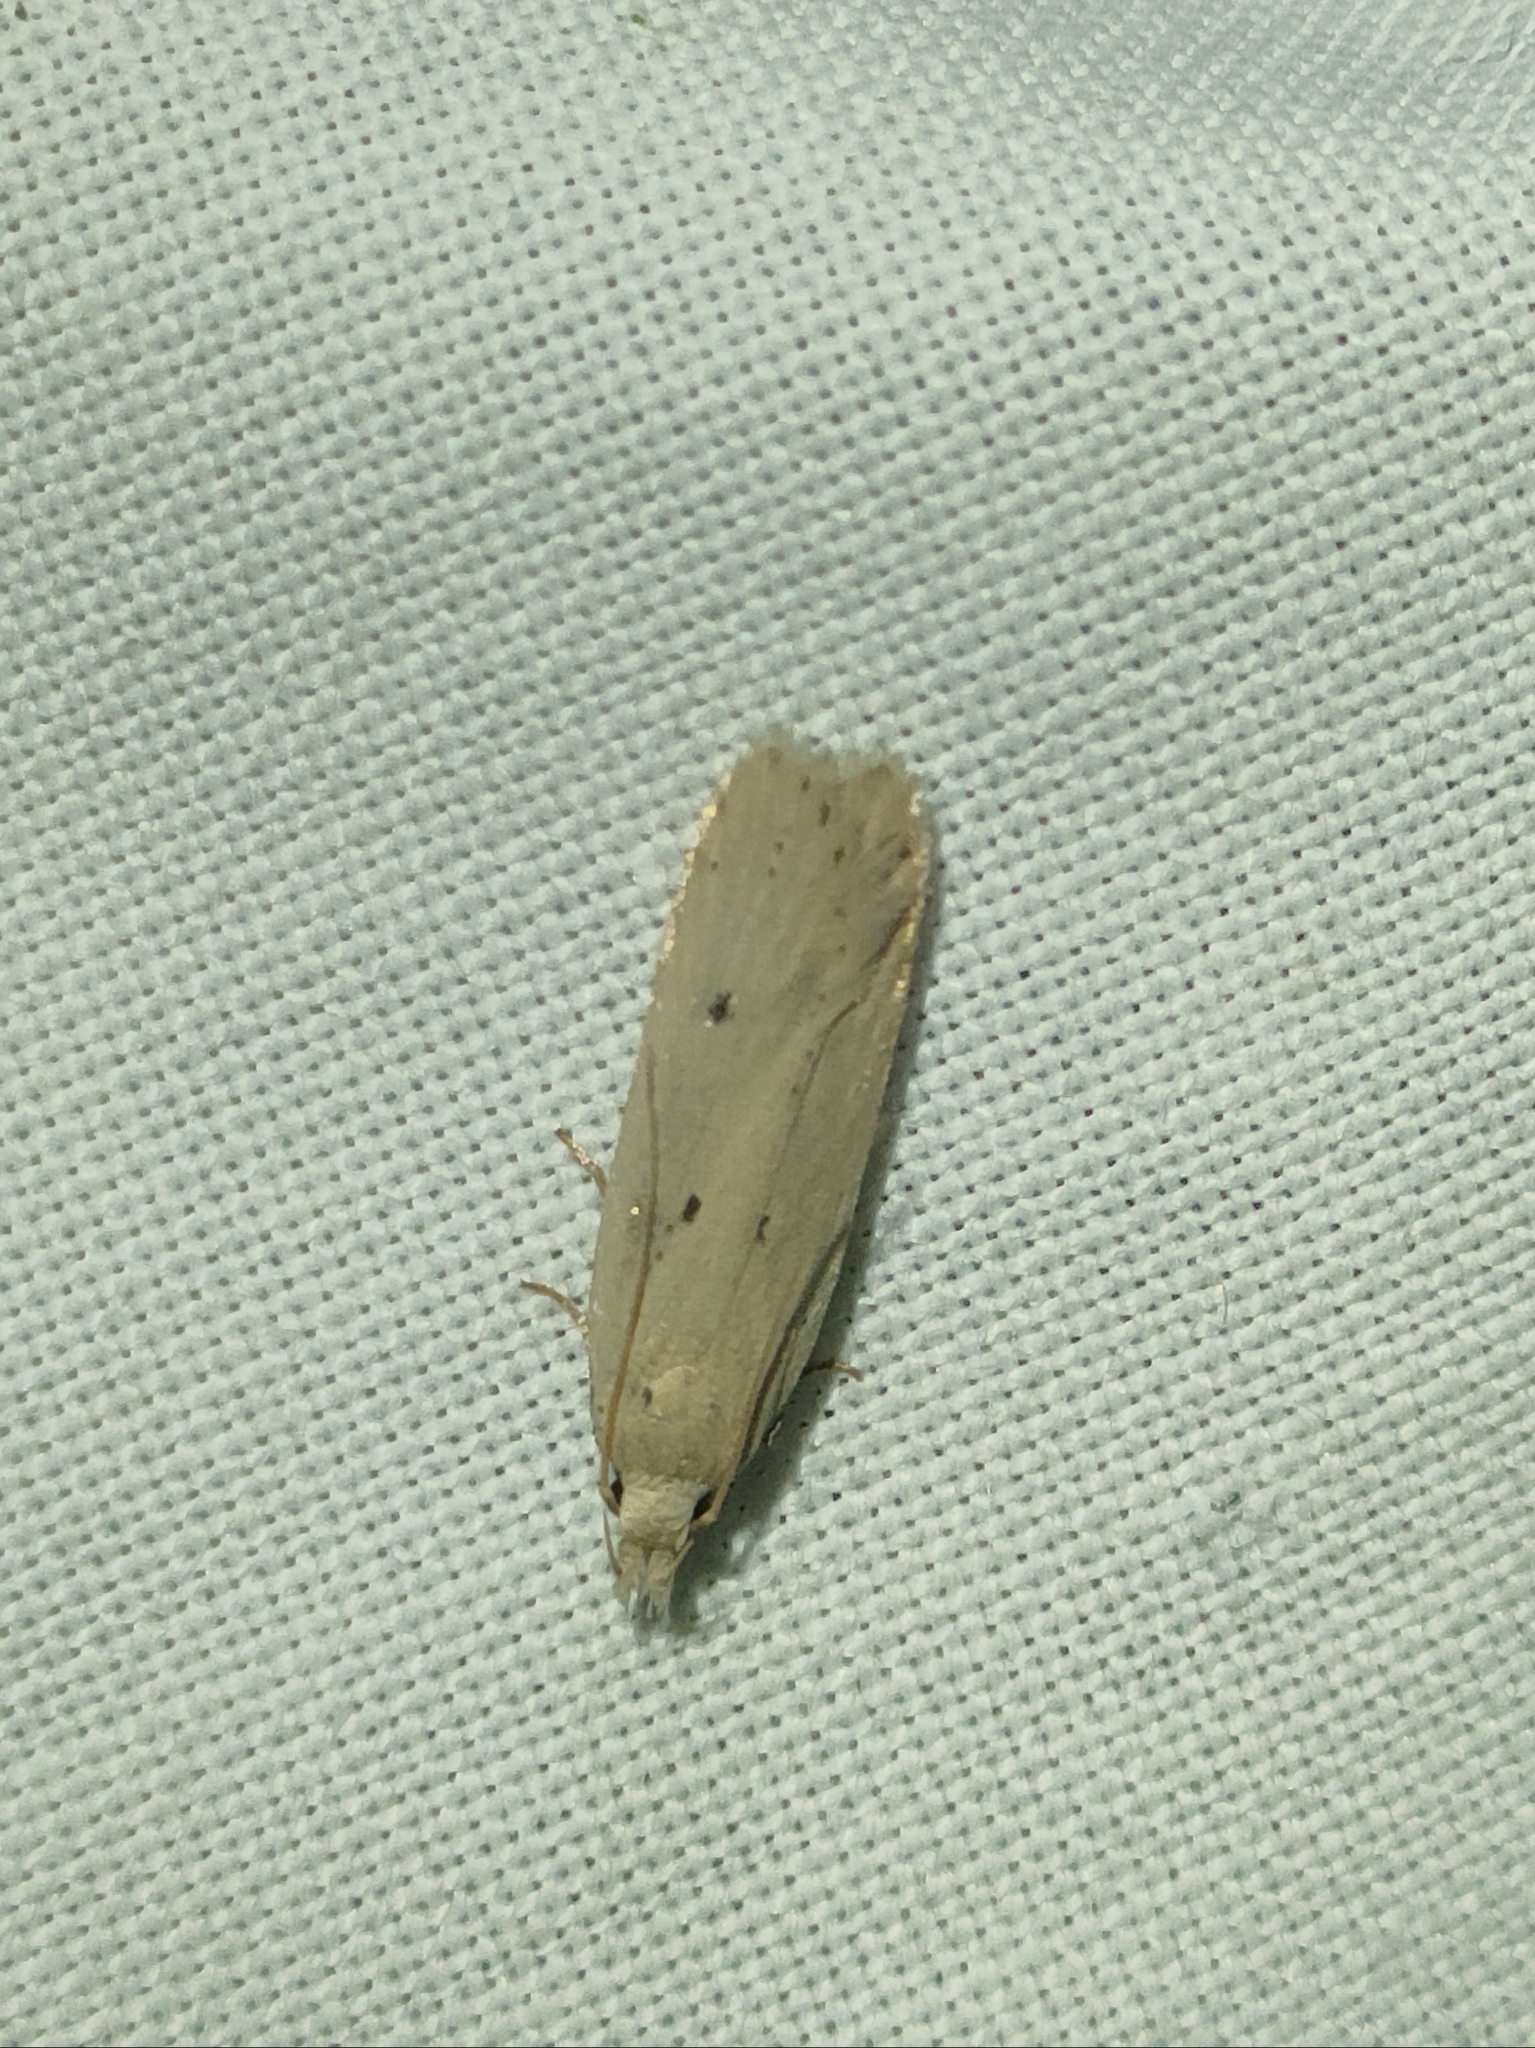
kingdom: Animalia
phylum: Arthropoda
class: Insecta
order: Lepidoptera
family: Gelechiidae
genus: Nothris
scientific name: Nothris verbascella
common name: Clay groundling
